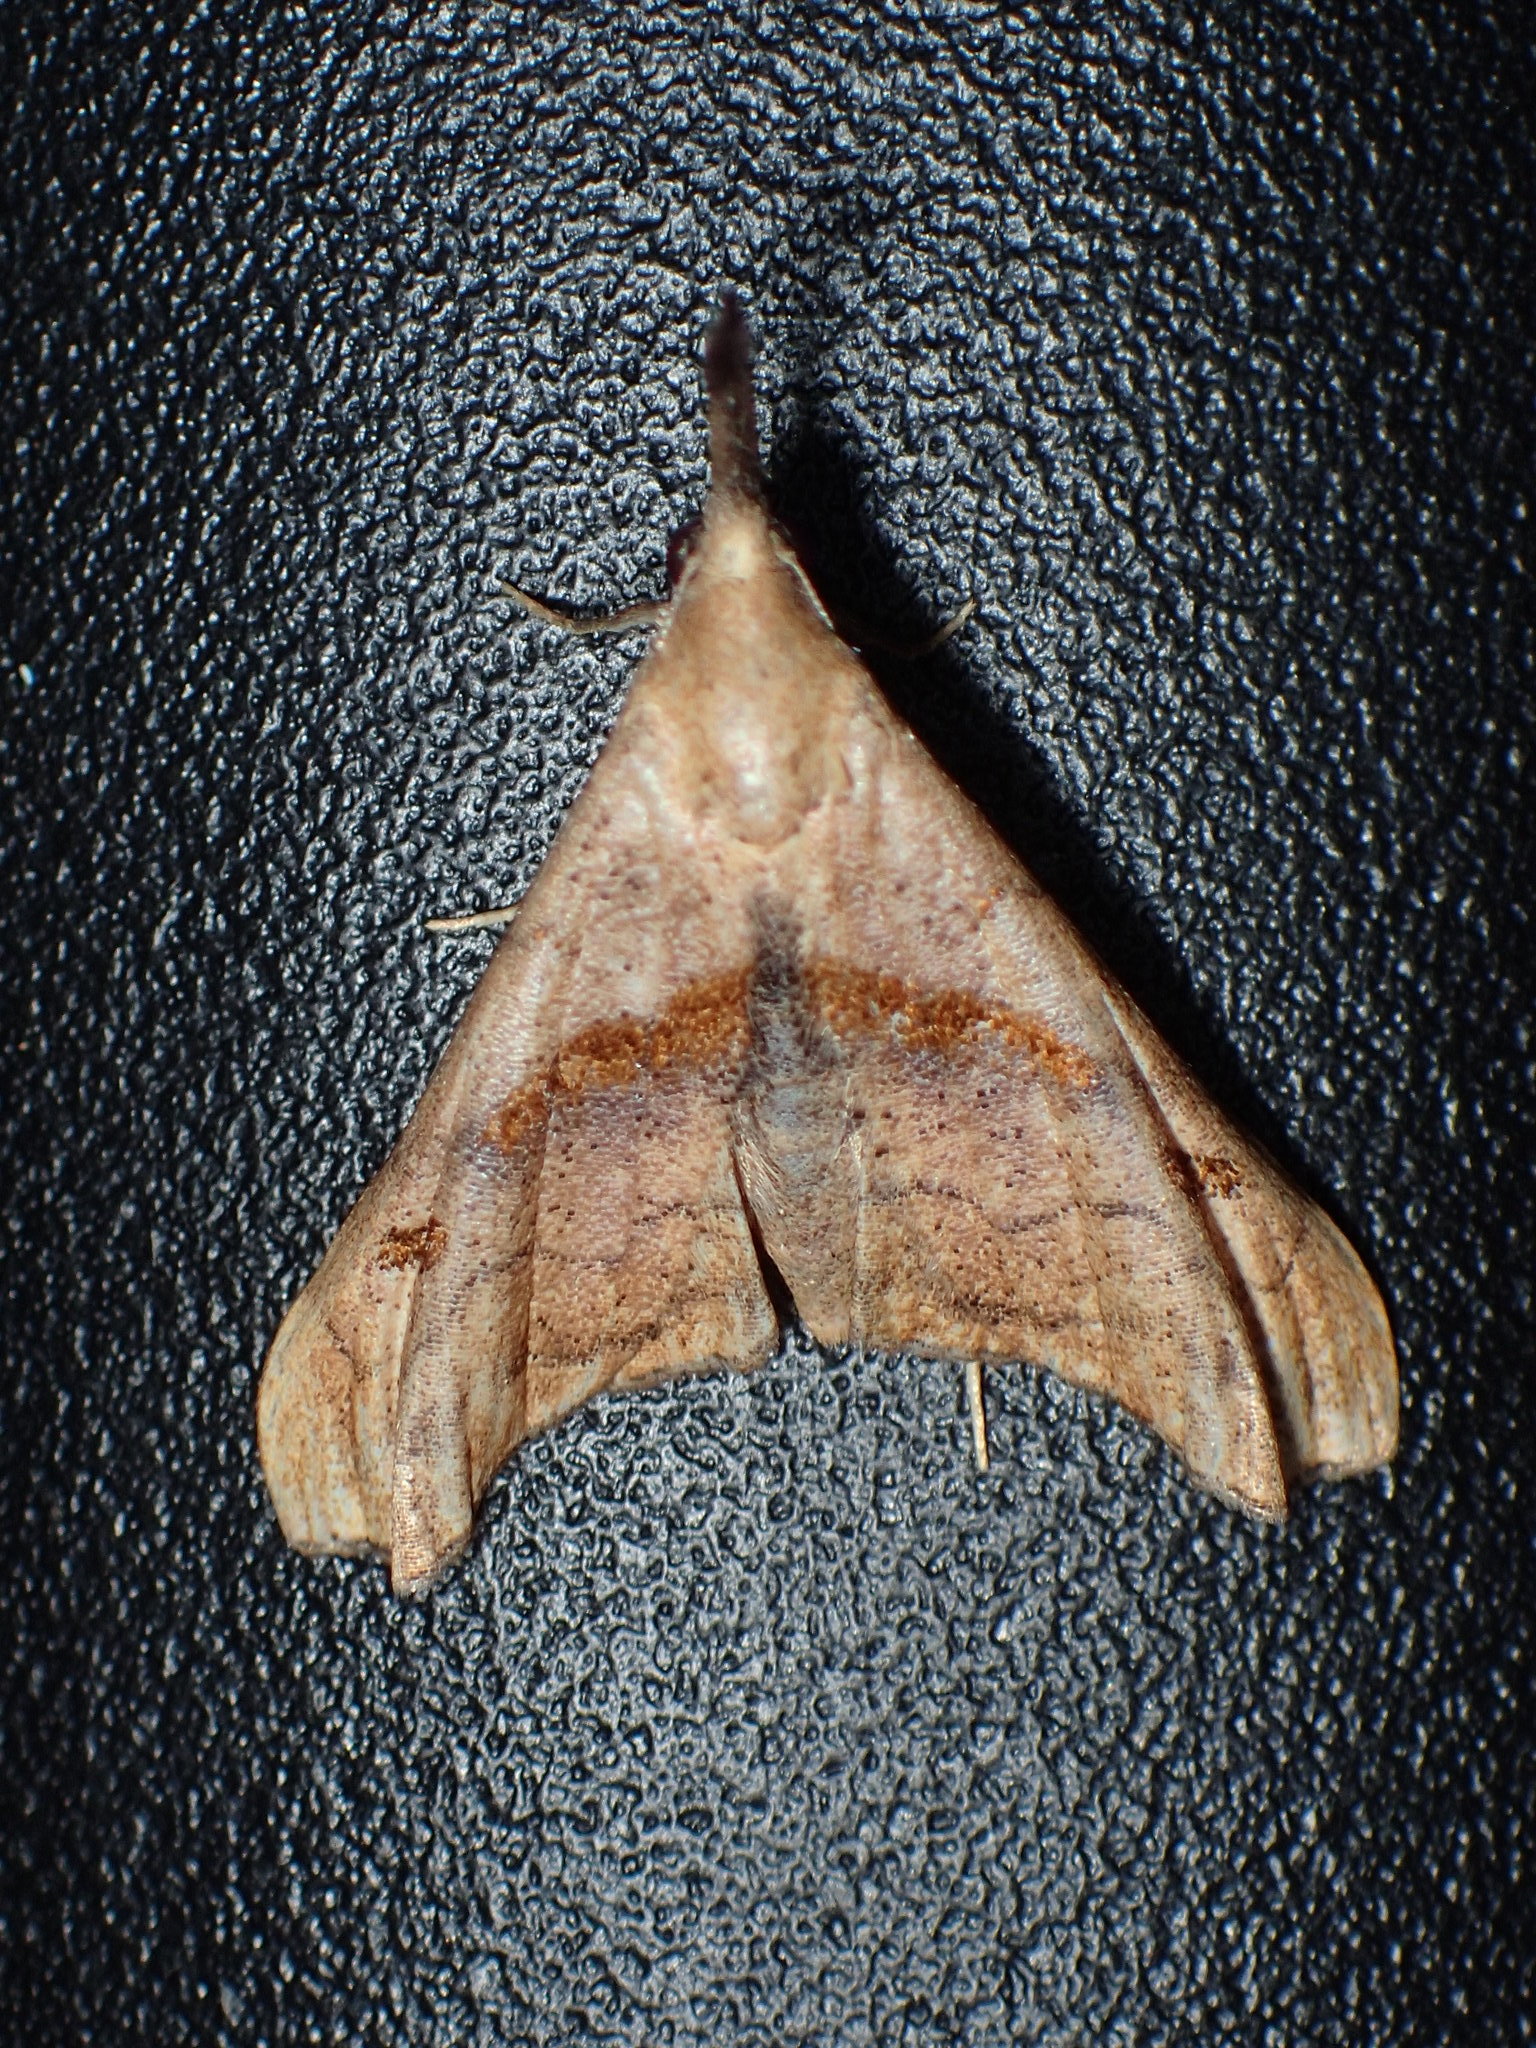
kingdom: Animalia
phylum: Arthropoda
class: Insecta
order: Lepidoptera
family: Erebidae
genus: Palthis
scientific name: Palthis angulalis
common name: Dark-spotted palthis moth
